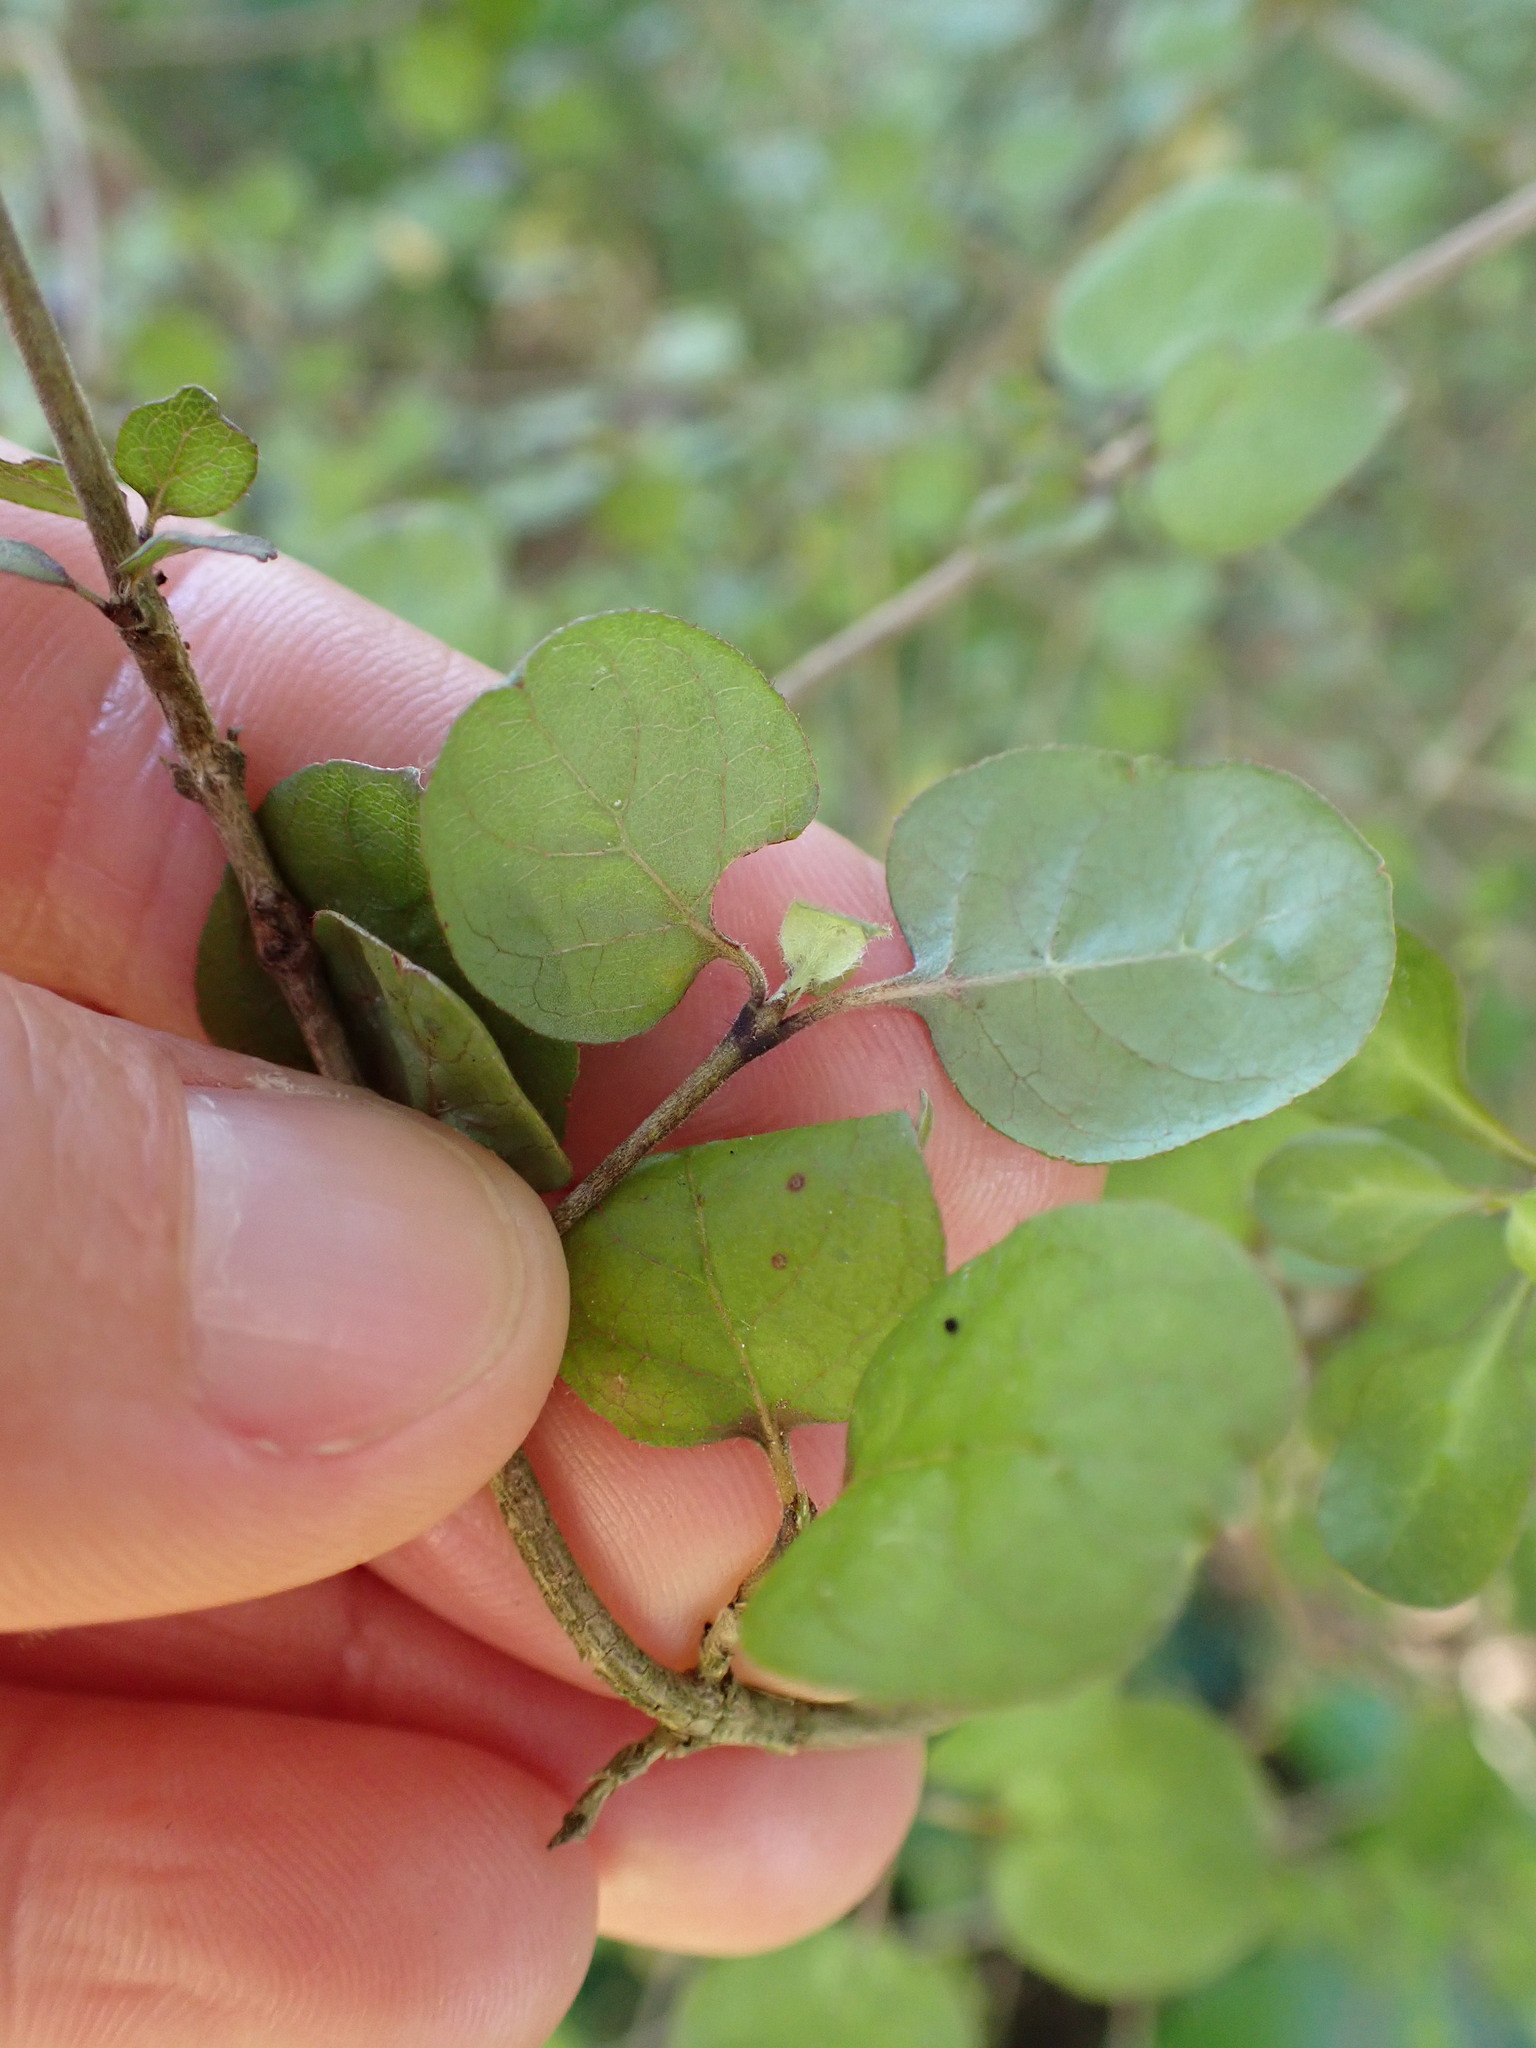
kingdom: Plantae
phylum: Tracheophyta
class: Magnoliopsida
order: Gentianales
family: Rubiaceae
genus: Coprosma
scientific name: Coprosma rotundifolia
